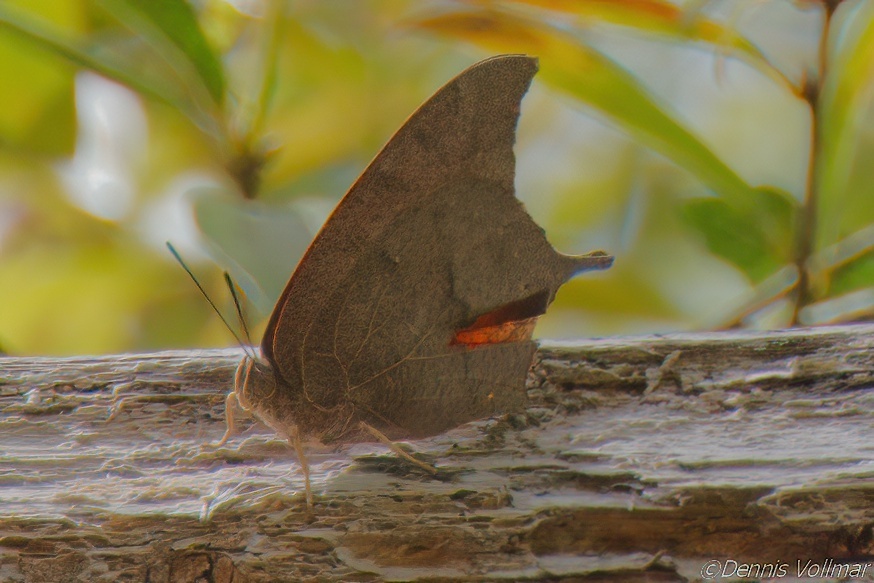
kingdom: Animalia
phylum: Arthropoda
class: Insecta
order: Lepidoptera
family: Nymphalidae
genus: Anaea
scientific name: Anaea andria
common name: Goatweed leafwing
